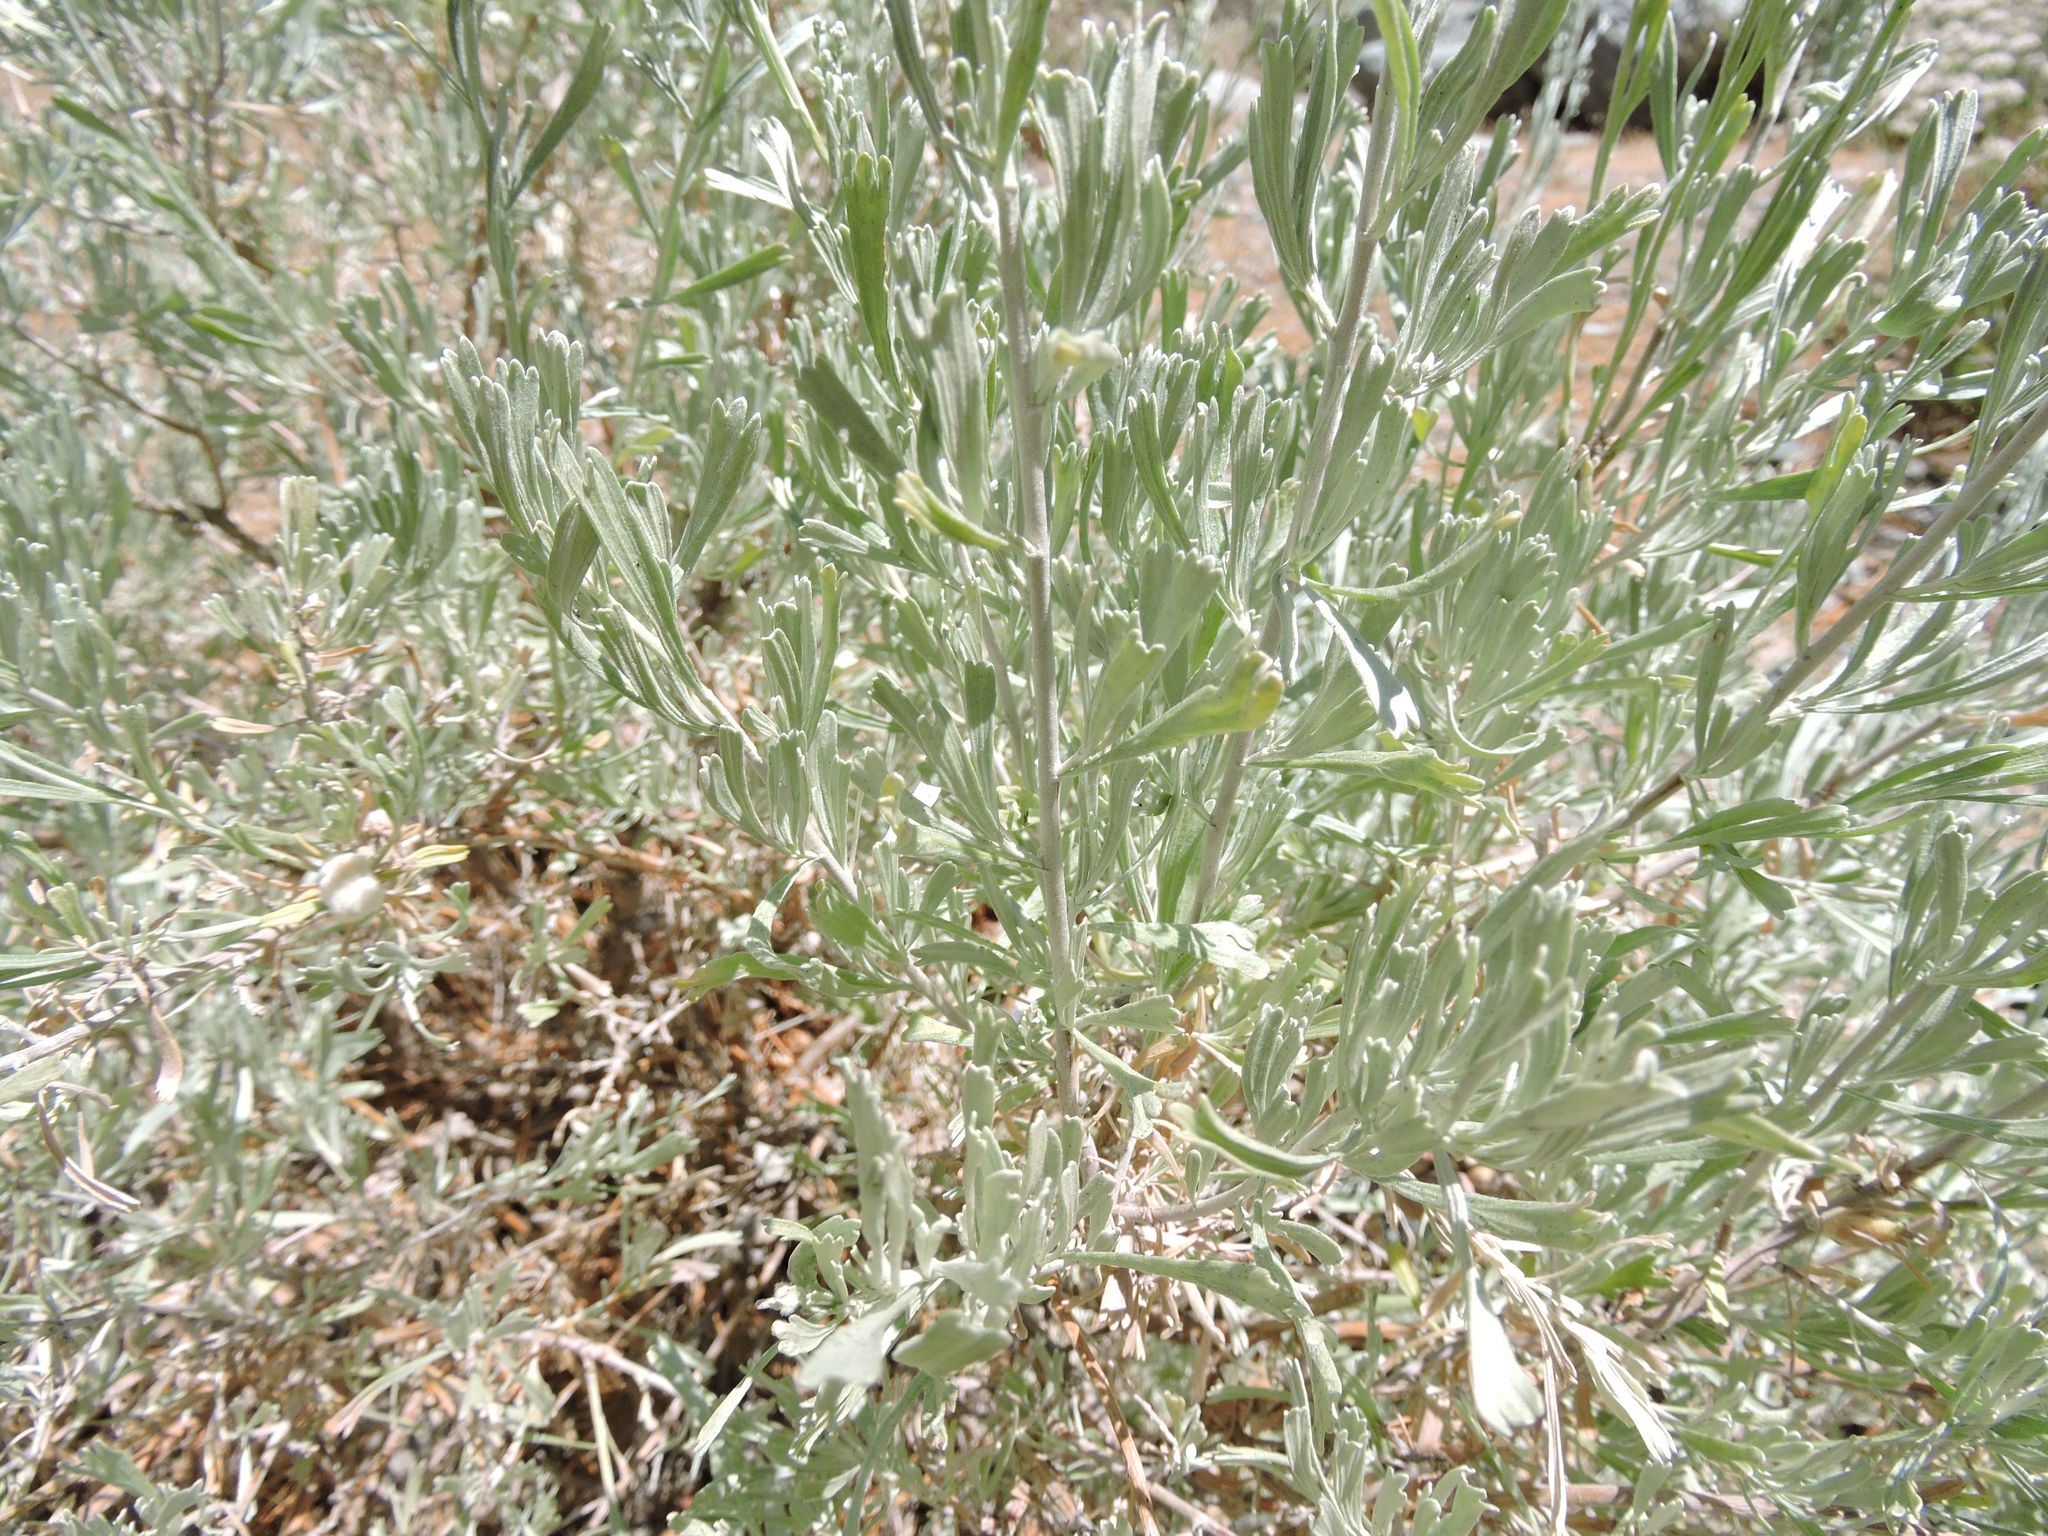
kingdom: Plantae
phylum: Tracheophyta
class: Magnoliopsida
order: Asterales
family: Asteraceae
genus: Artemisia
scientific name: Artemisia tridentata
